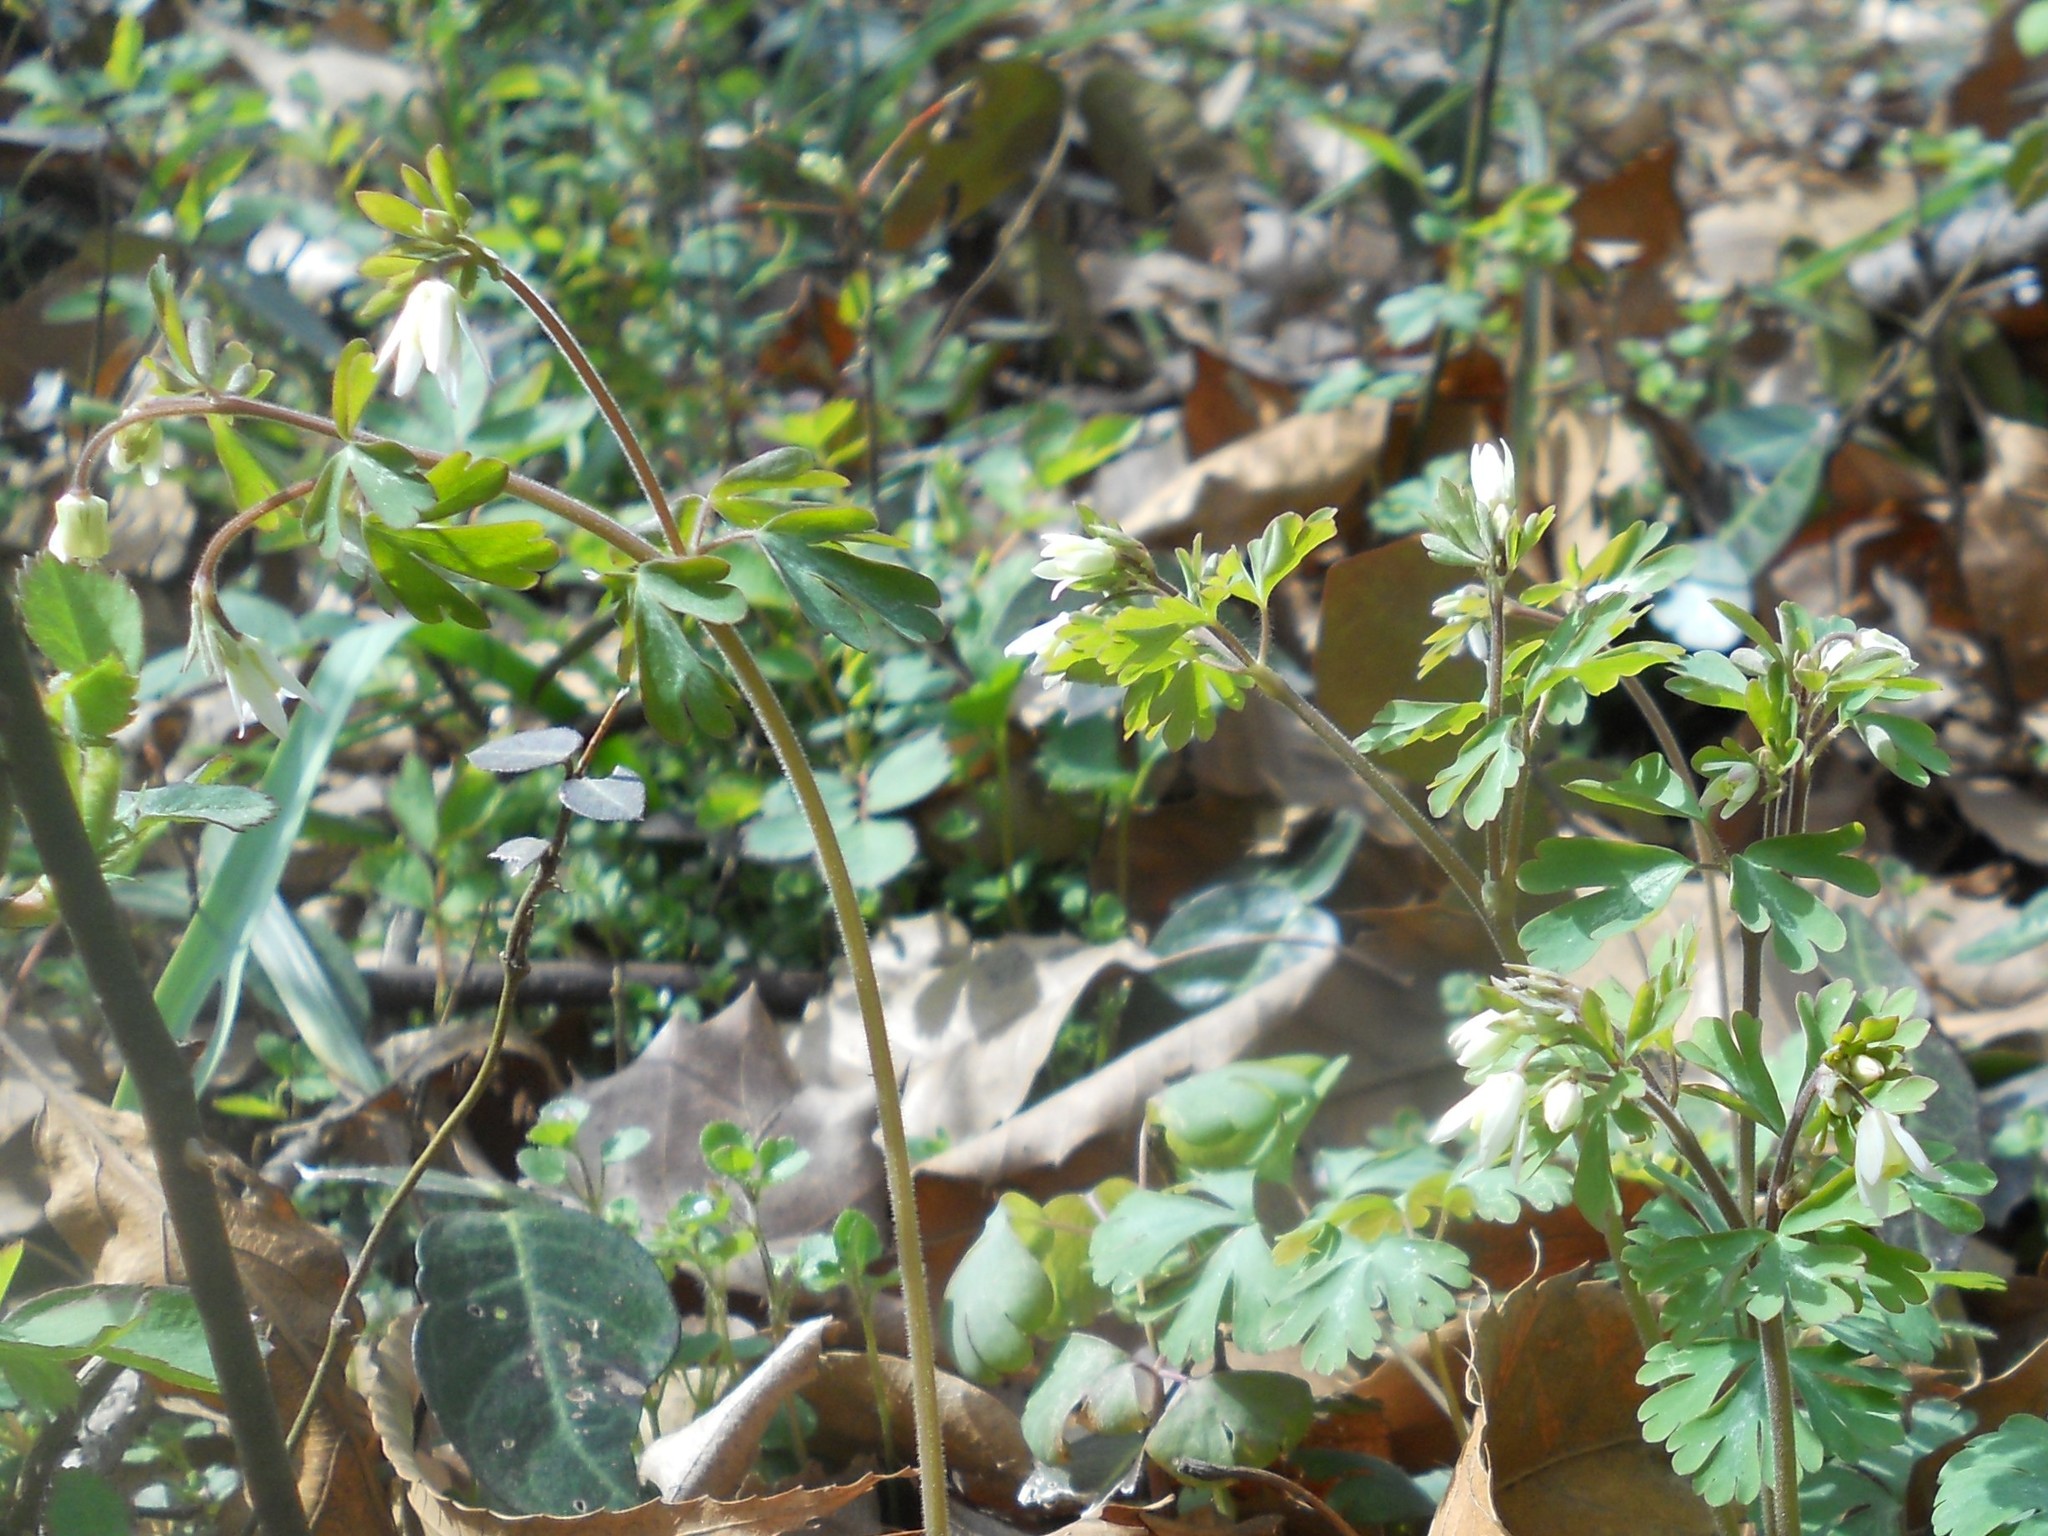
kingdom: Plantae
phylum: Tracheophyta
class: Magnoliopsida
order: Ranunculales
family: Ranunculaceae
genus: Semiaquilegia
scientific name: Semiaquilegia adoxoides
